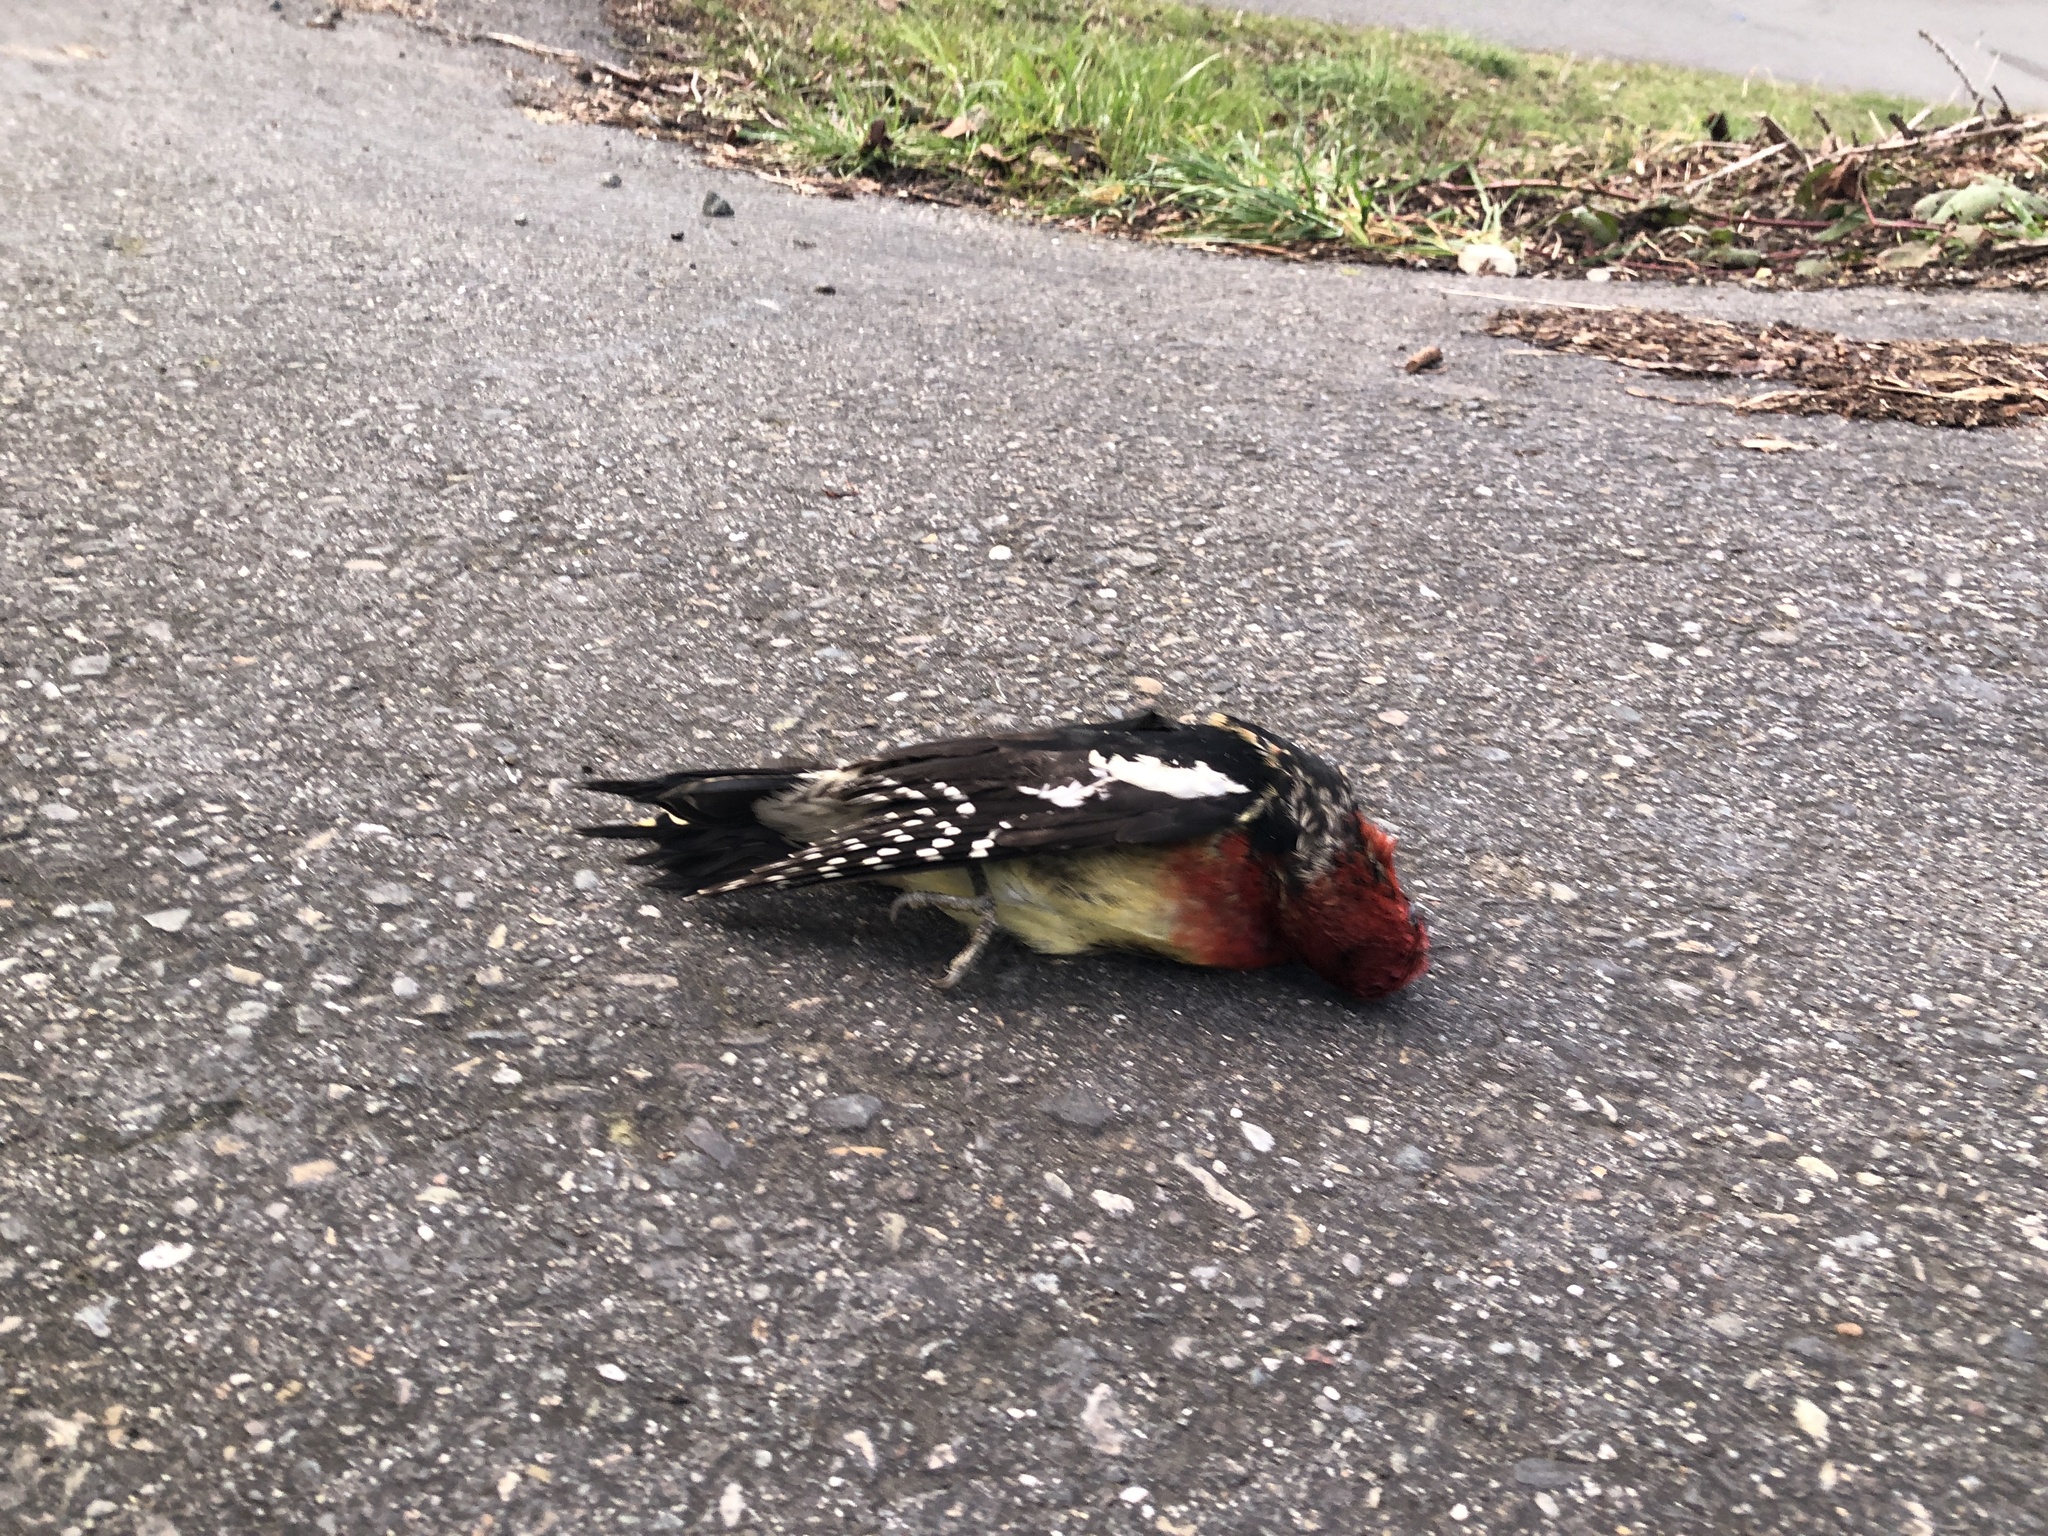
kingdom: Animalia
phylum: Chordata
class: Aves
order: Piciformes
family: Picidae
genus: Sphyrapicus
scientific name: Sphyrapicus ruber
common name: Red-breasted sapsucker
